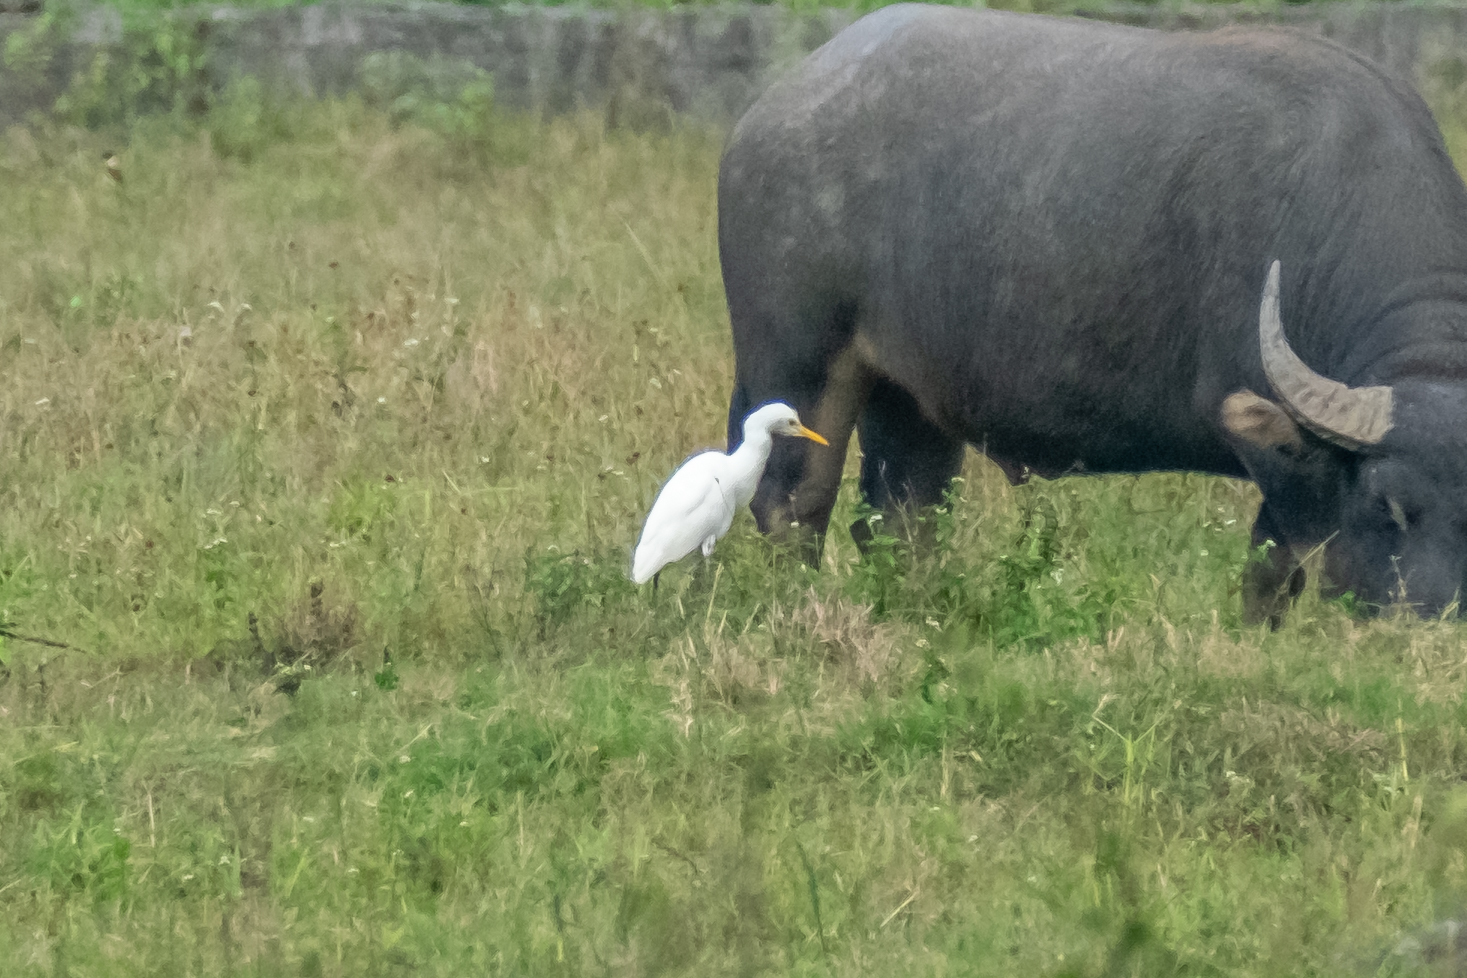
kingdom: Animalia
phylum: Chordata
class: Aves
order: Pelecaniformes
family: Ardeidae
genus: Bubulcus
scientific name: Bubulcus coromandus
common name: Eastern cattle egret
